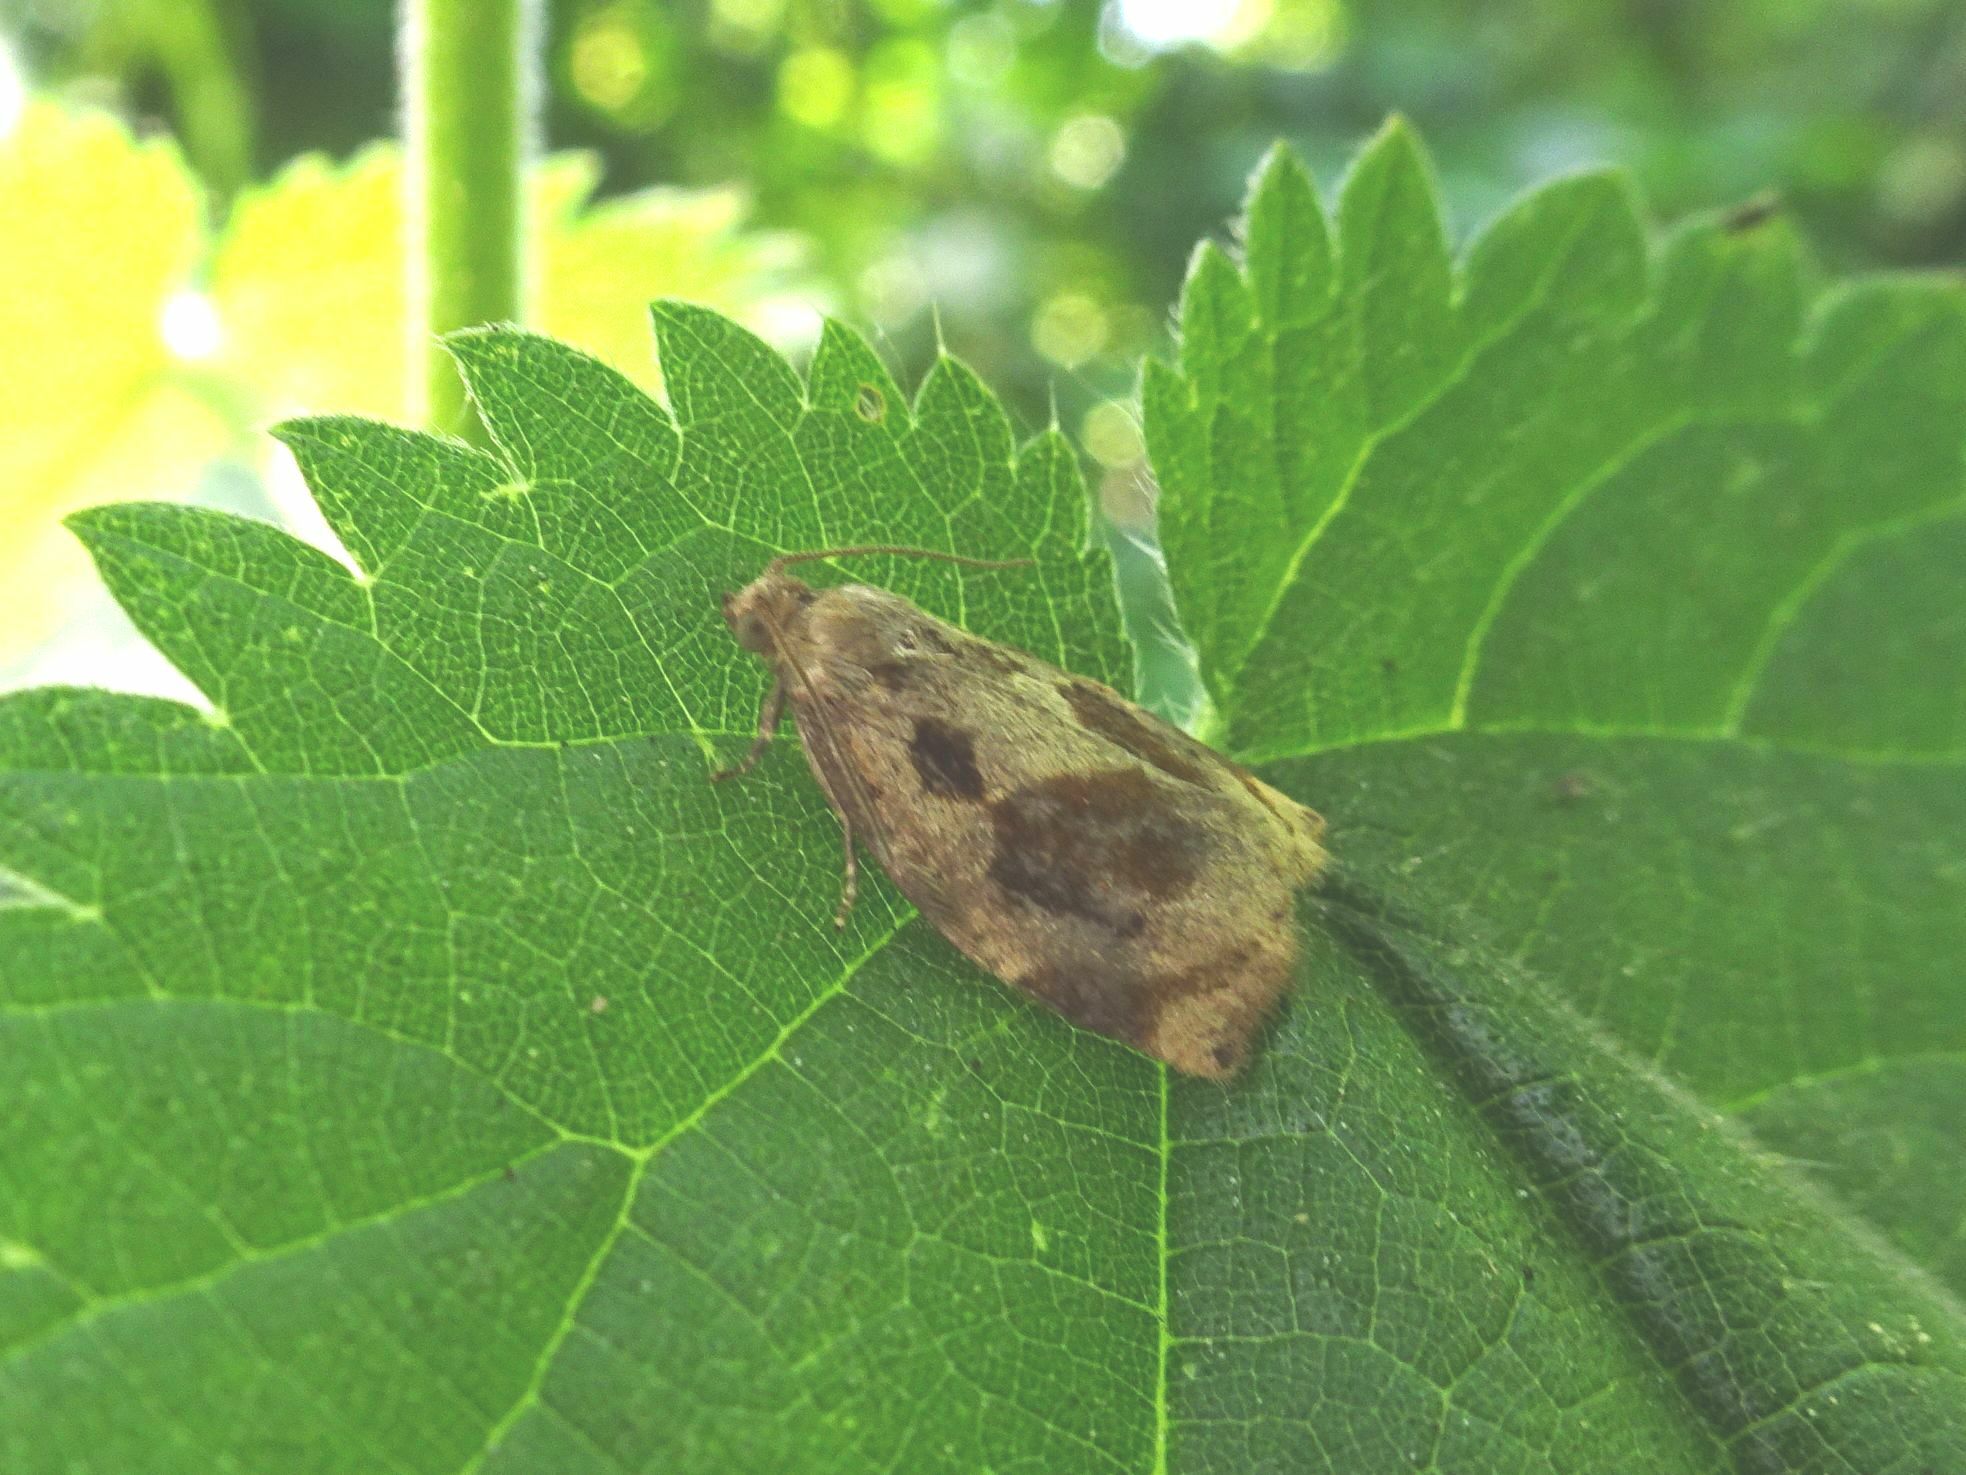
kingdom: Animalia
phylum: Arthropoda
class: Insecta
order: Lepidoptera
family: Tortricidae
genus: Archips
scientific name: Archips crataegana
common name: Brown oak tortrix
